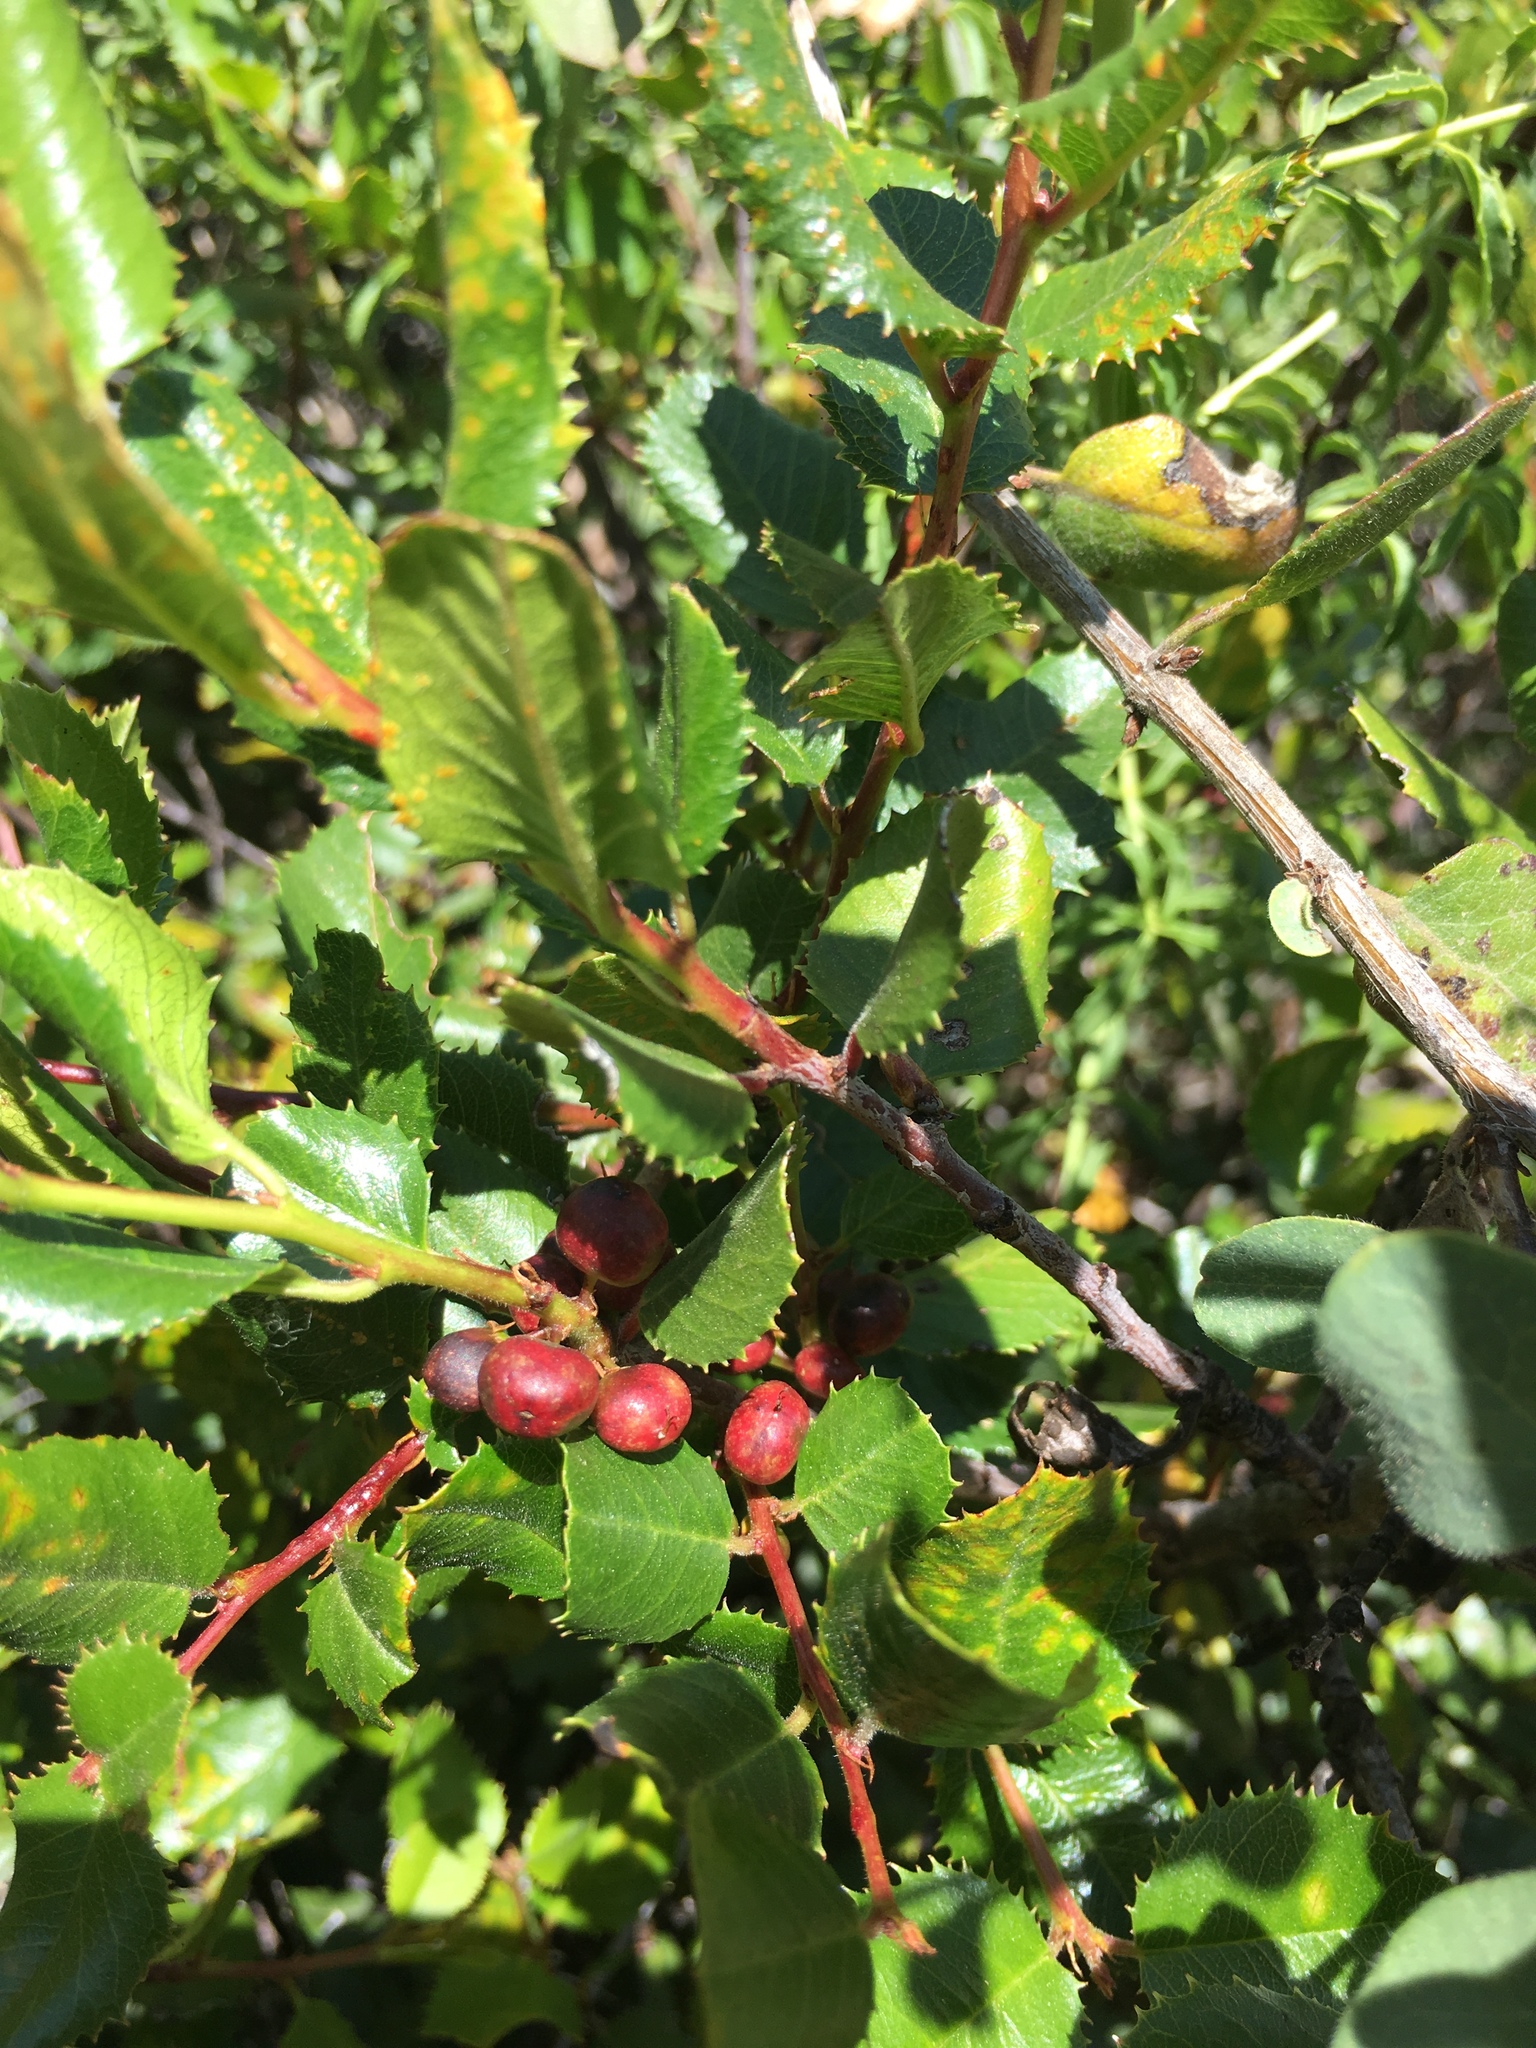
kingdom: Plantae
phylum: Tracheophyta
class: Magnoliopsida
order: Rosales
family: Rhamnaceae
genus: Endotropis
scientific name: Endotropis crocea
